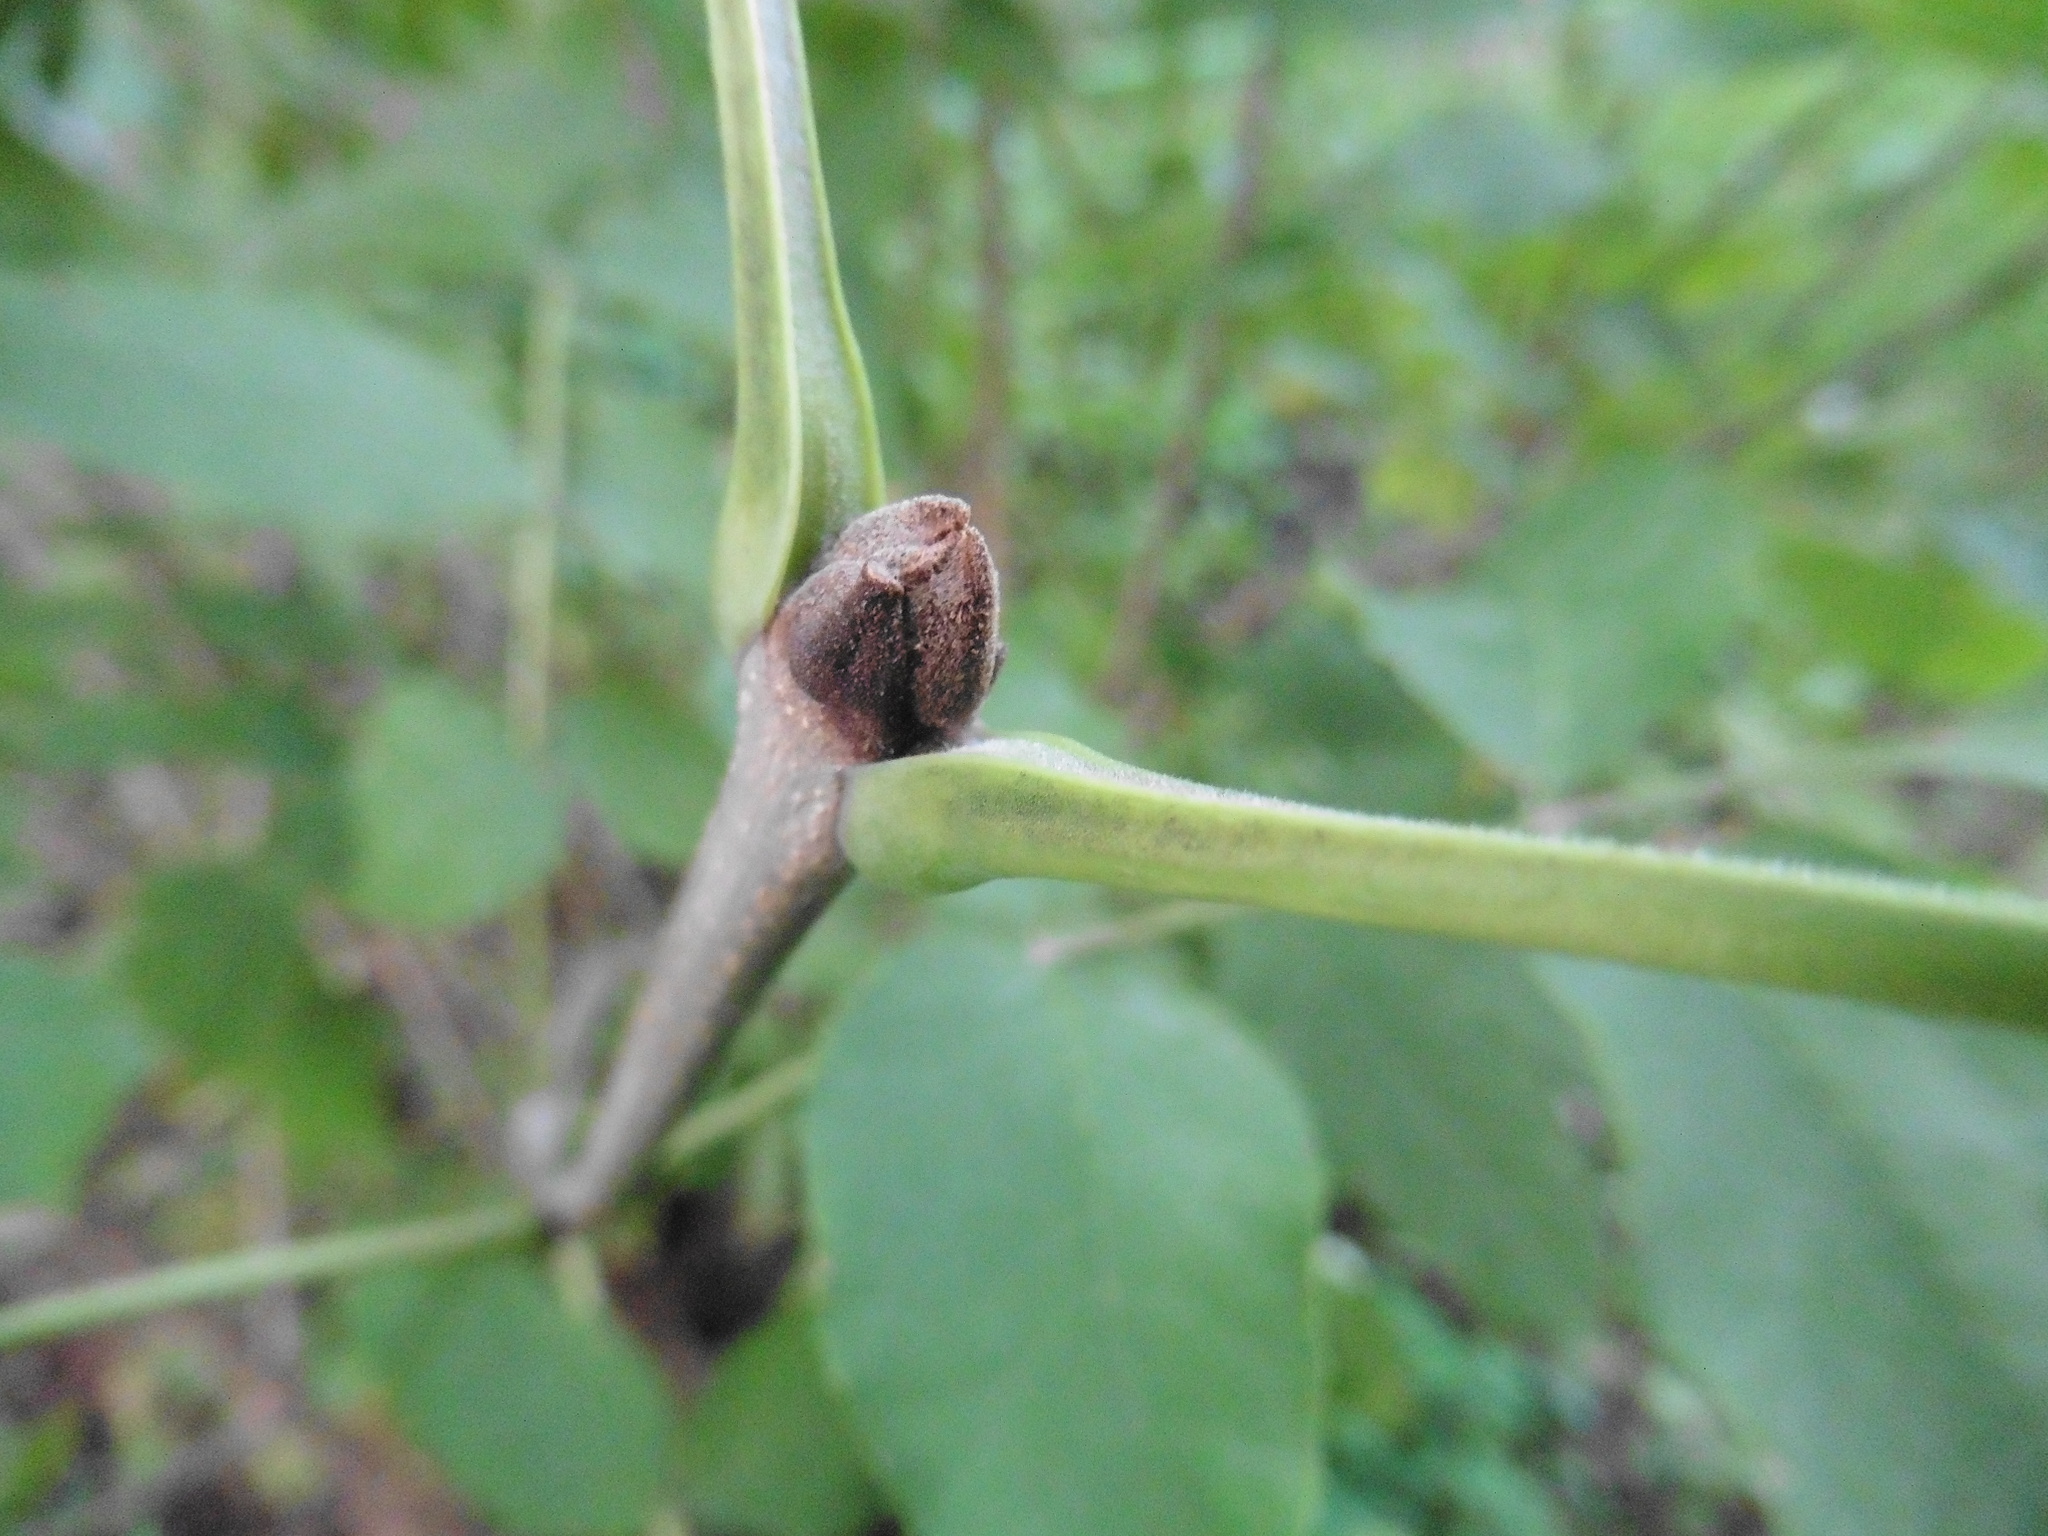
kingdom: Plantae
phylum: Tracheophyta
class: Magnoliopsida
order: Lamiales
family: Oleaceae
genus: Fraxinus
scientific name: Fraxinus pennsylvanica
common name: Green ash
